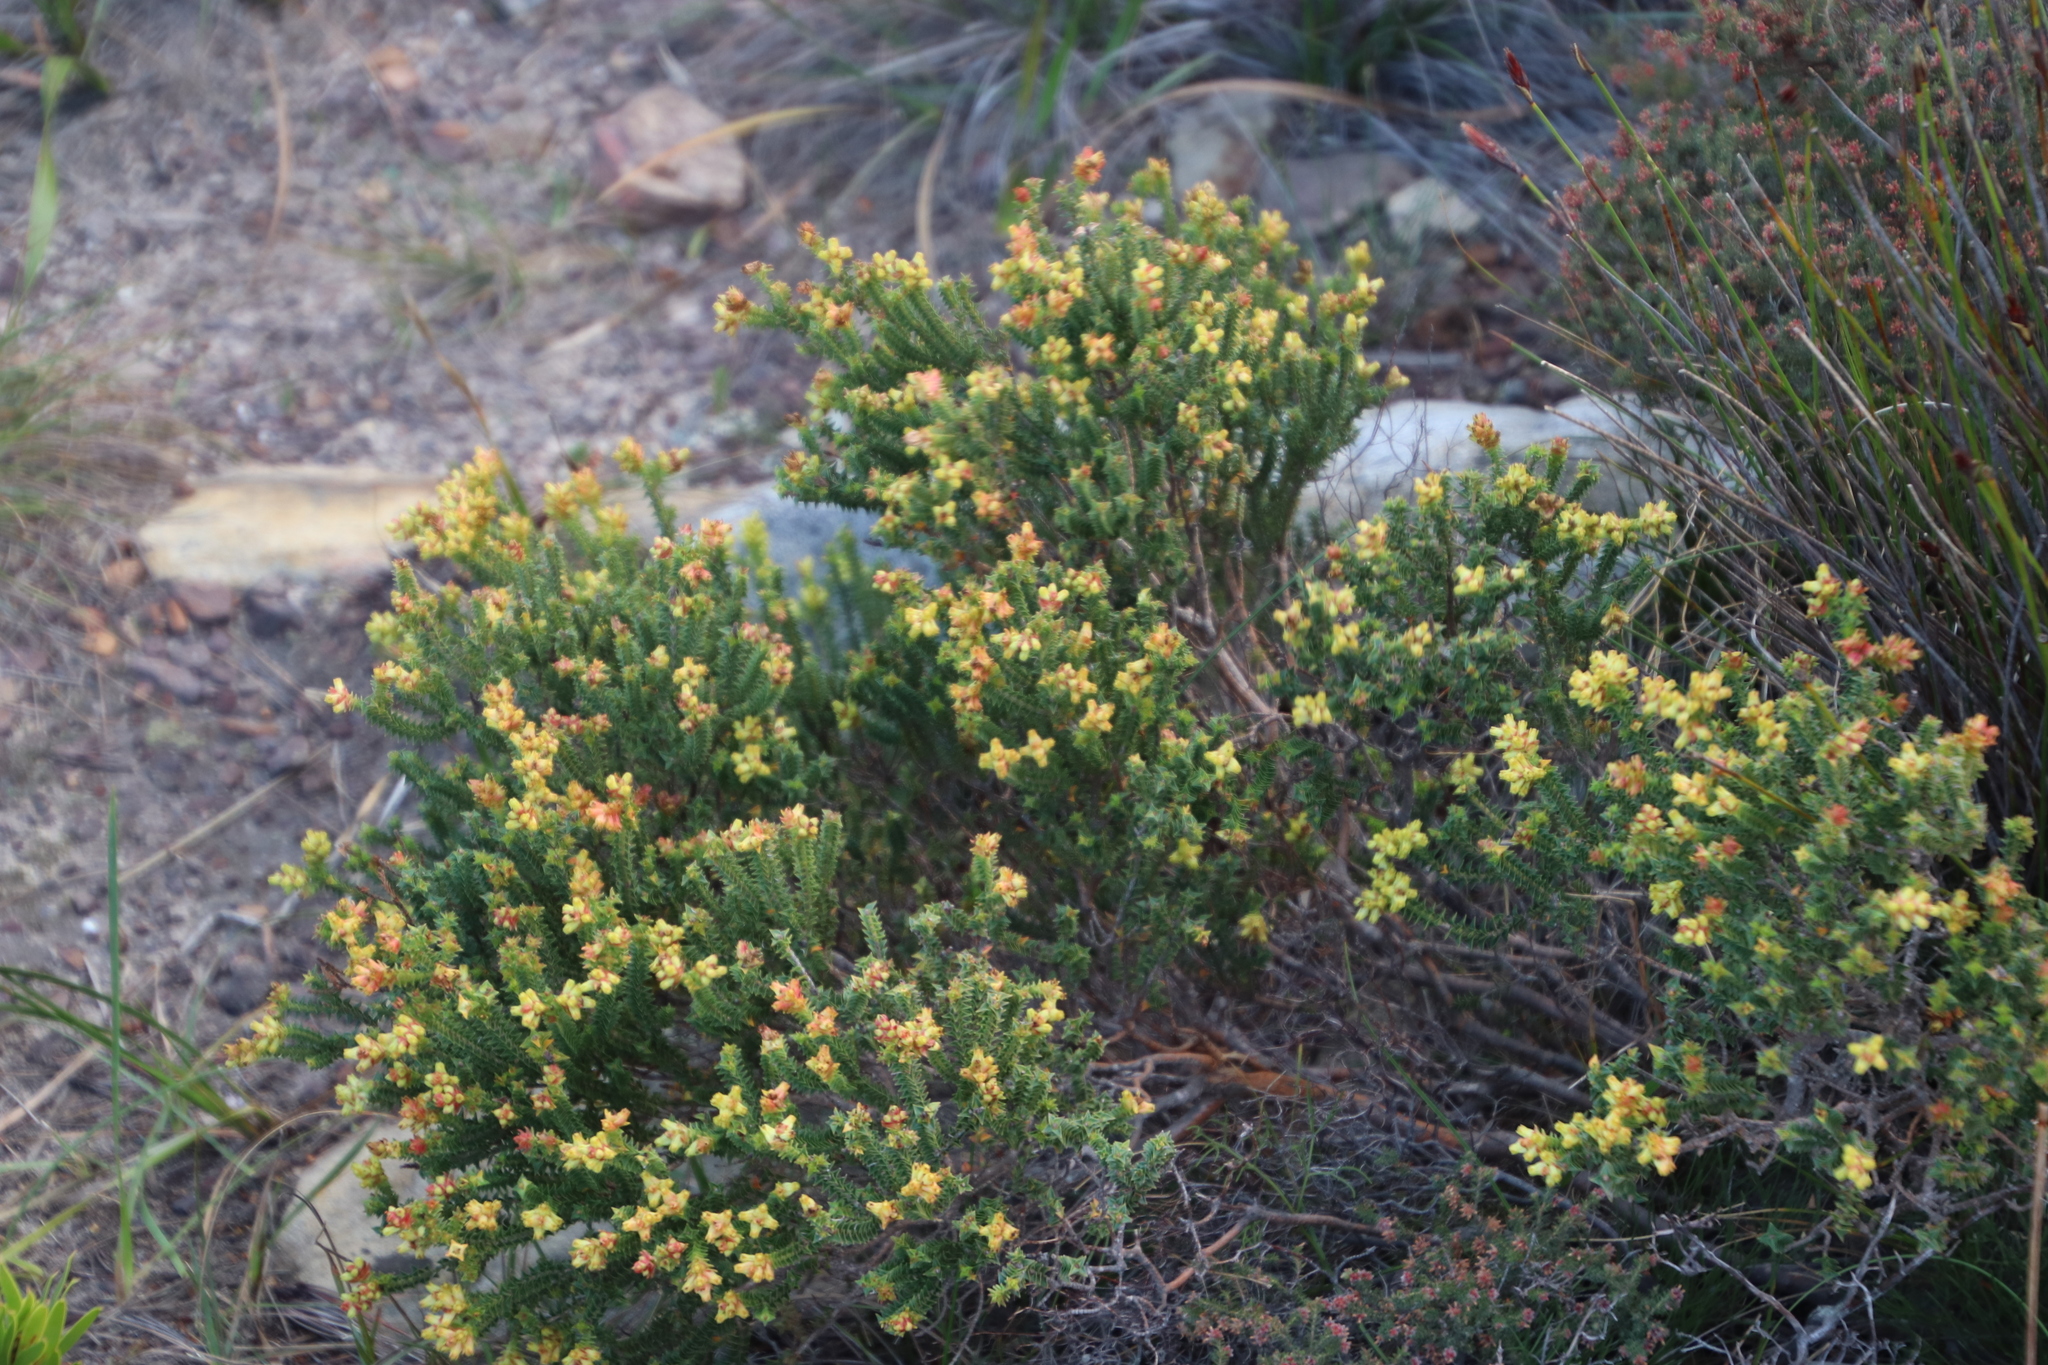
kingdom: Plantae
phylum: Tracheophyta
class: Magnoliopsida
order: Myrtales
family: Penaeaceae
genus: Penaea
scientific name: Penaea mucronata
